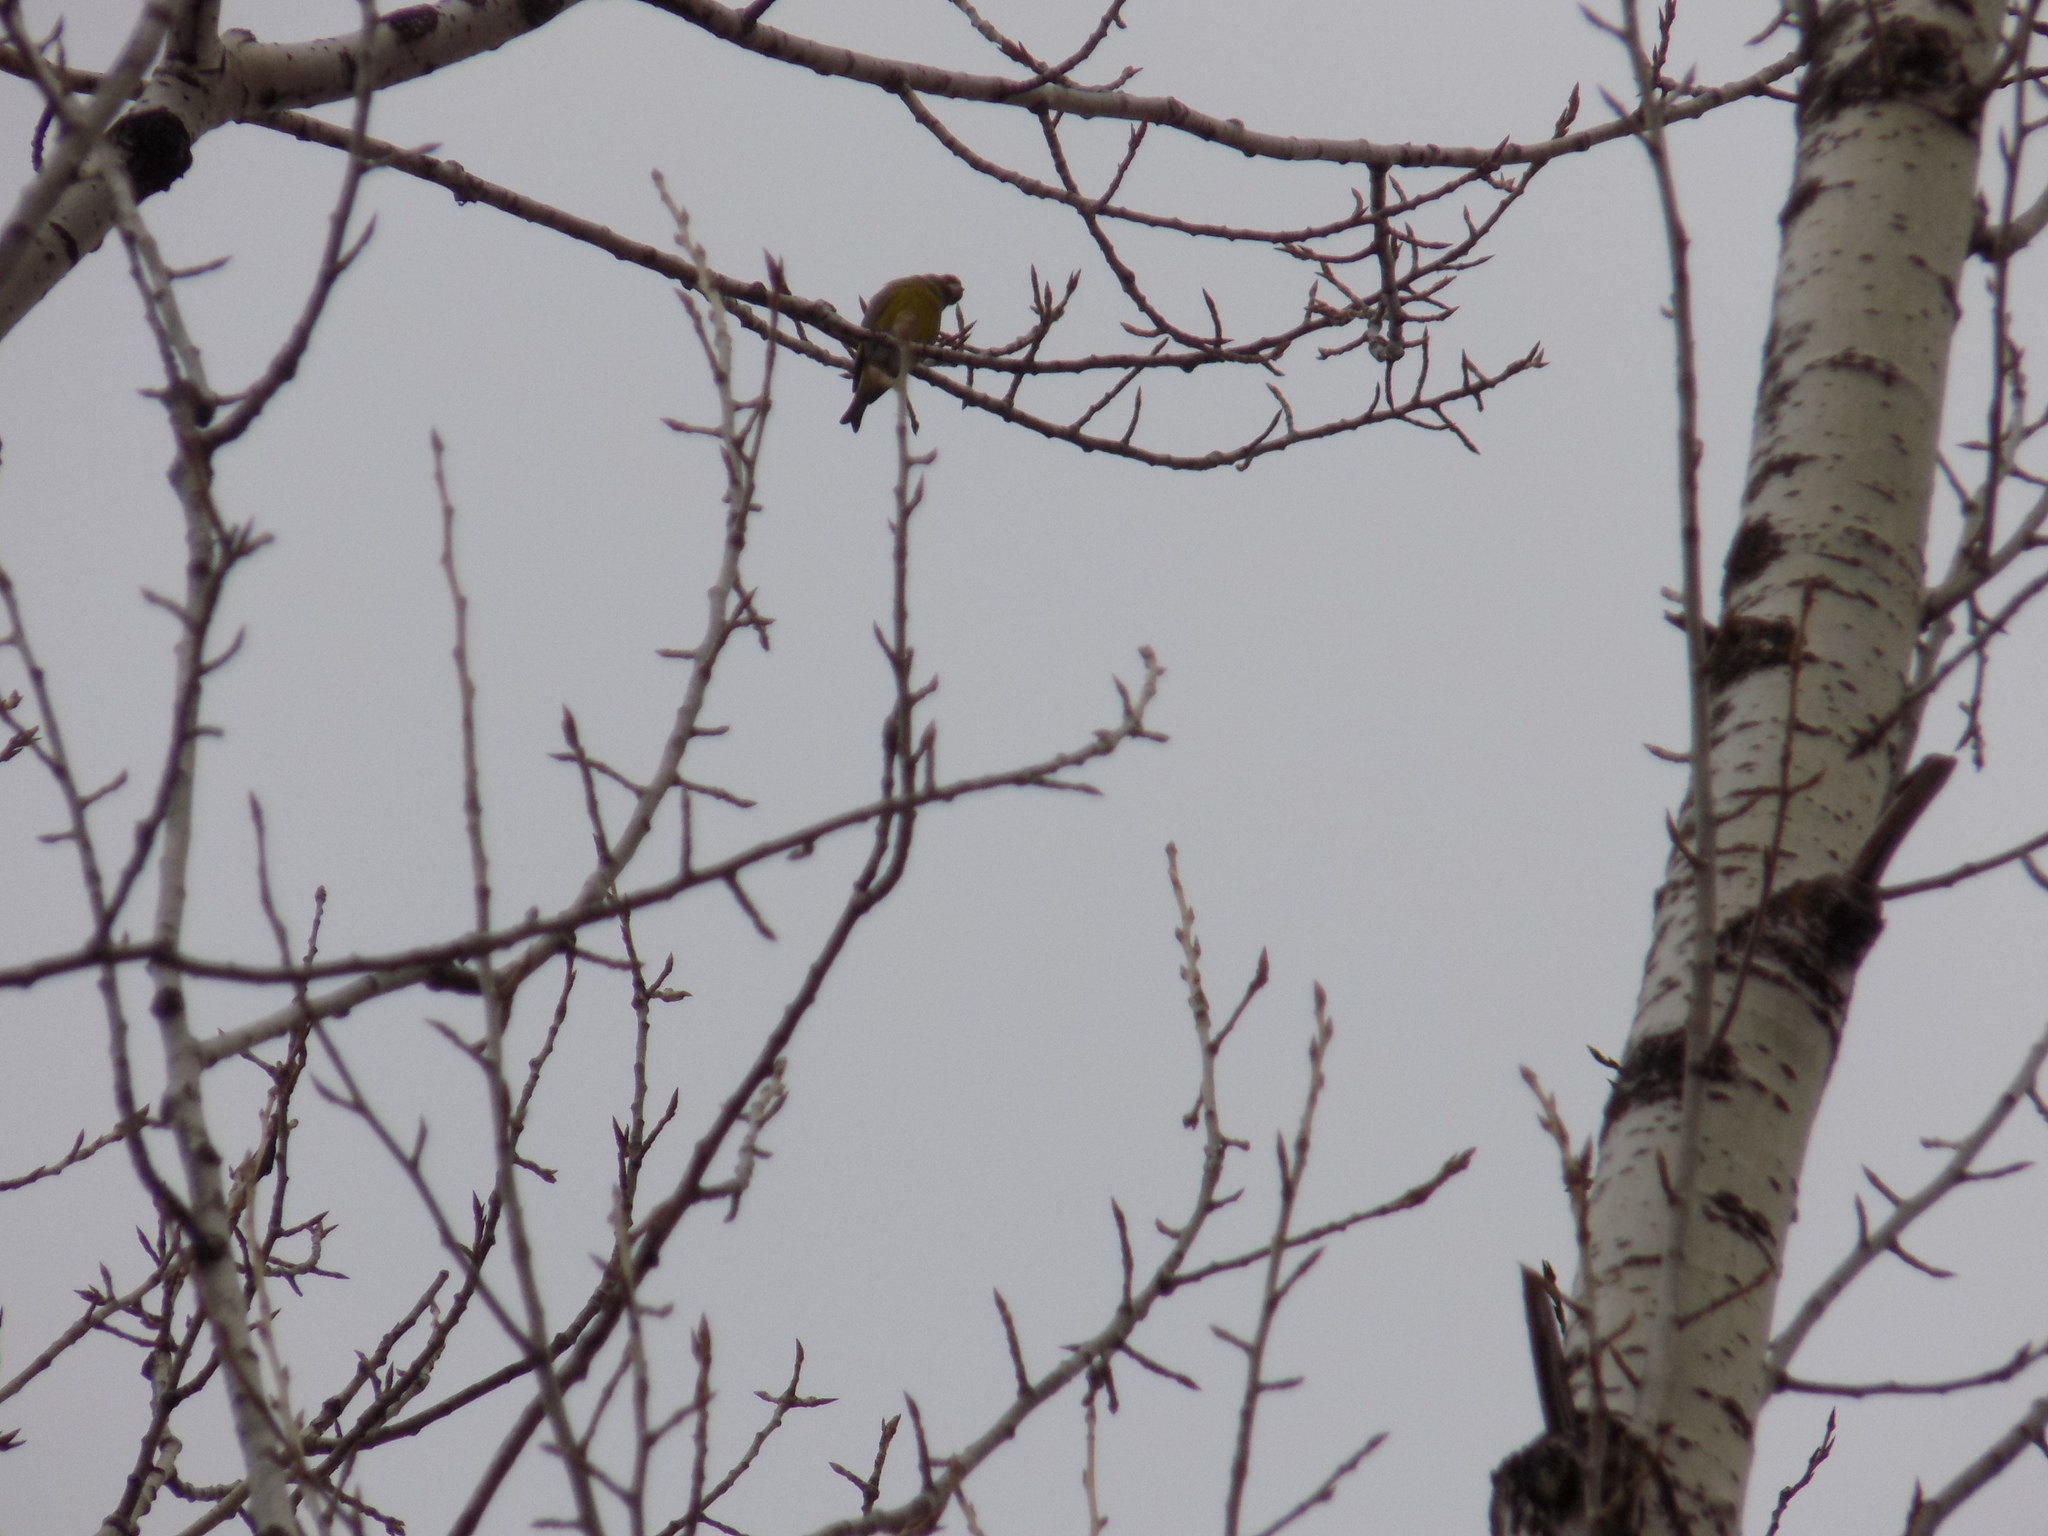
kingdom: Plantae
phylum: Tracheophyta
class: Liliopsida
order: Poales
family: Poaceae
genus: Chloris
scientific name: Chloris chloris
